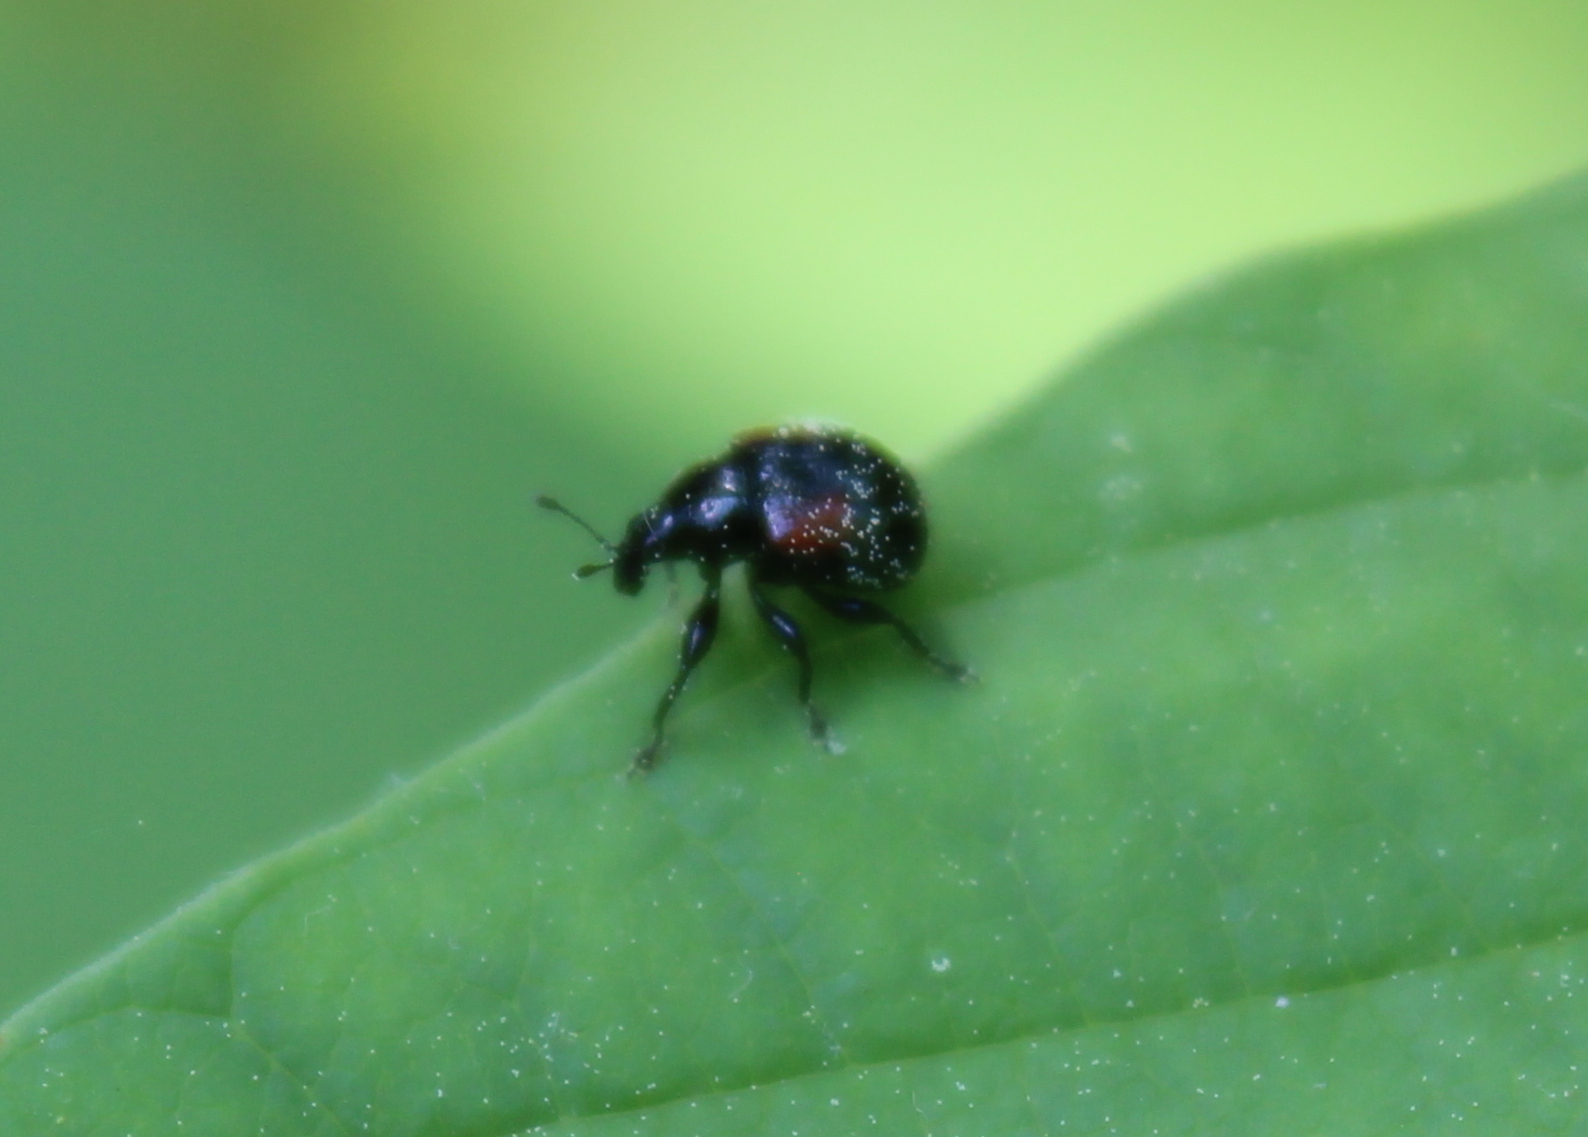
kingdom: Animalia
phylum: Arthropoda
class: Insecta
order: Coleoptera
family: Attelabidae
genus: Attelabus
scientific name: Attelabus bipustulatus
